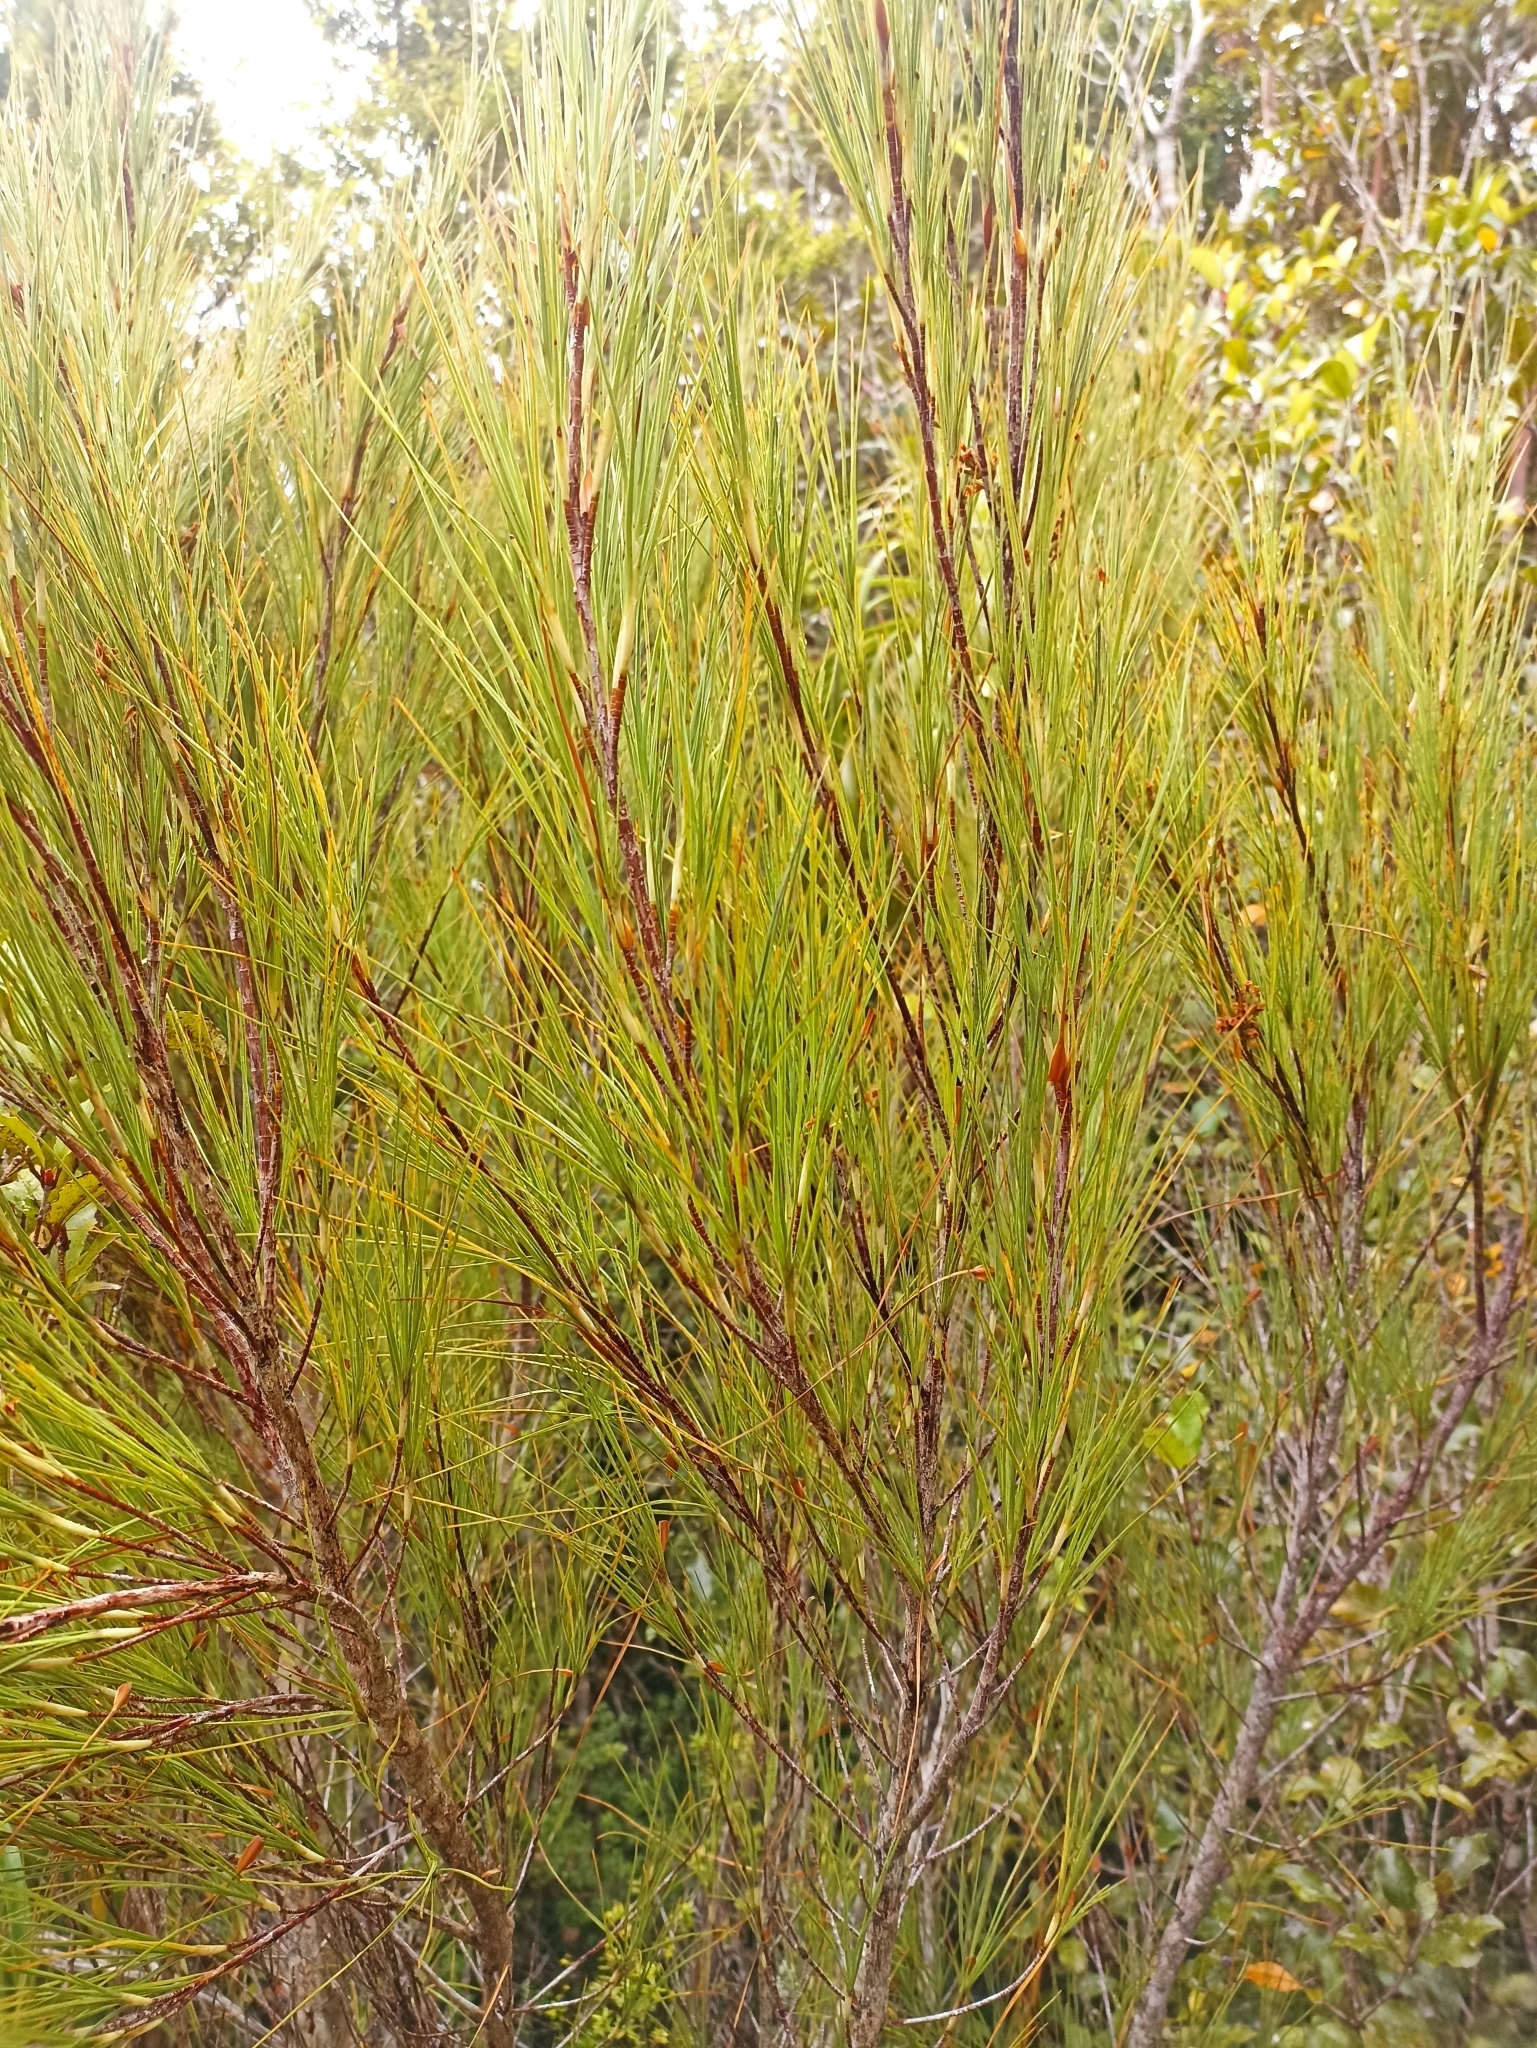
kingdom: Plantae
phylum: Tracheophyta
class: Magnoliopsida
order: Ericales
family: Ericaceae
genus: Dracophyllum
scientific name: Dracophyllum longifolium
